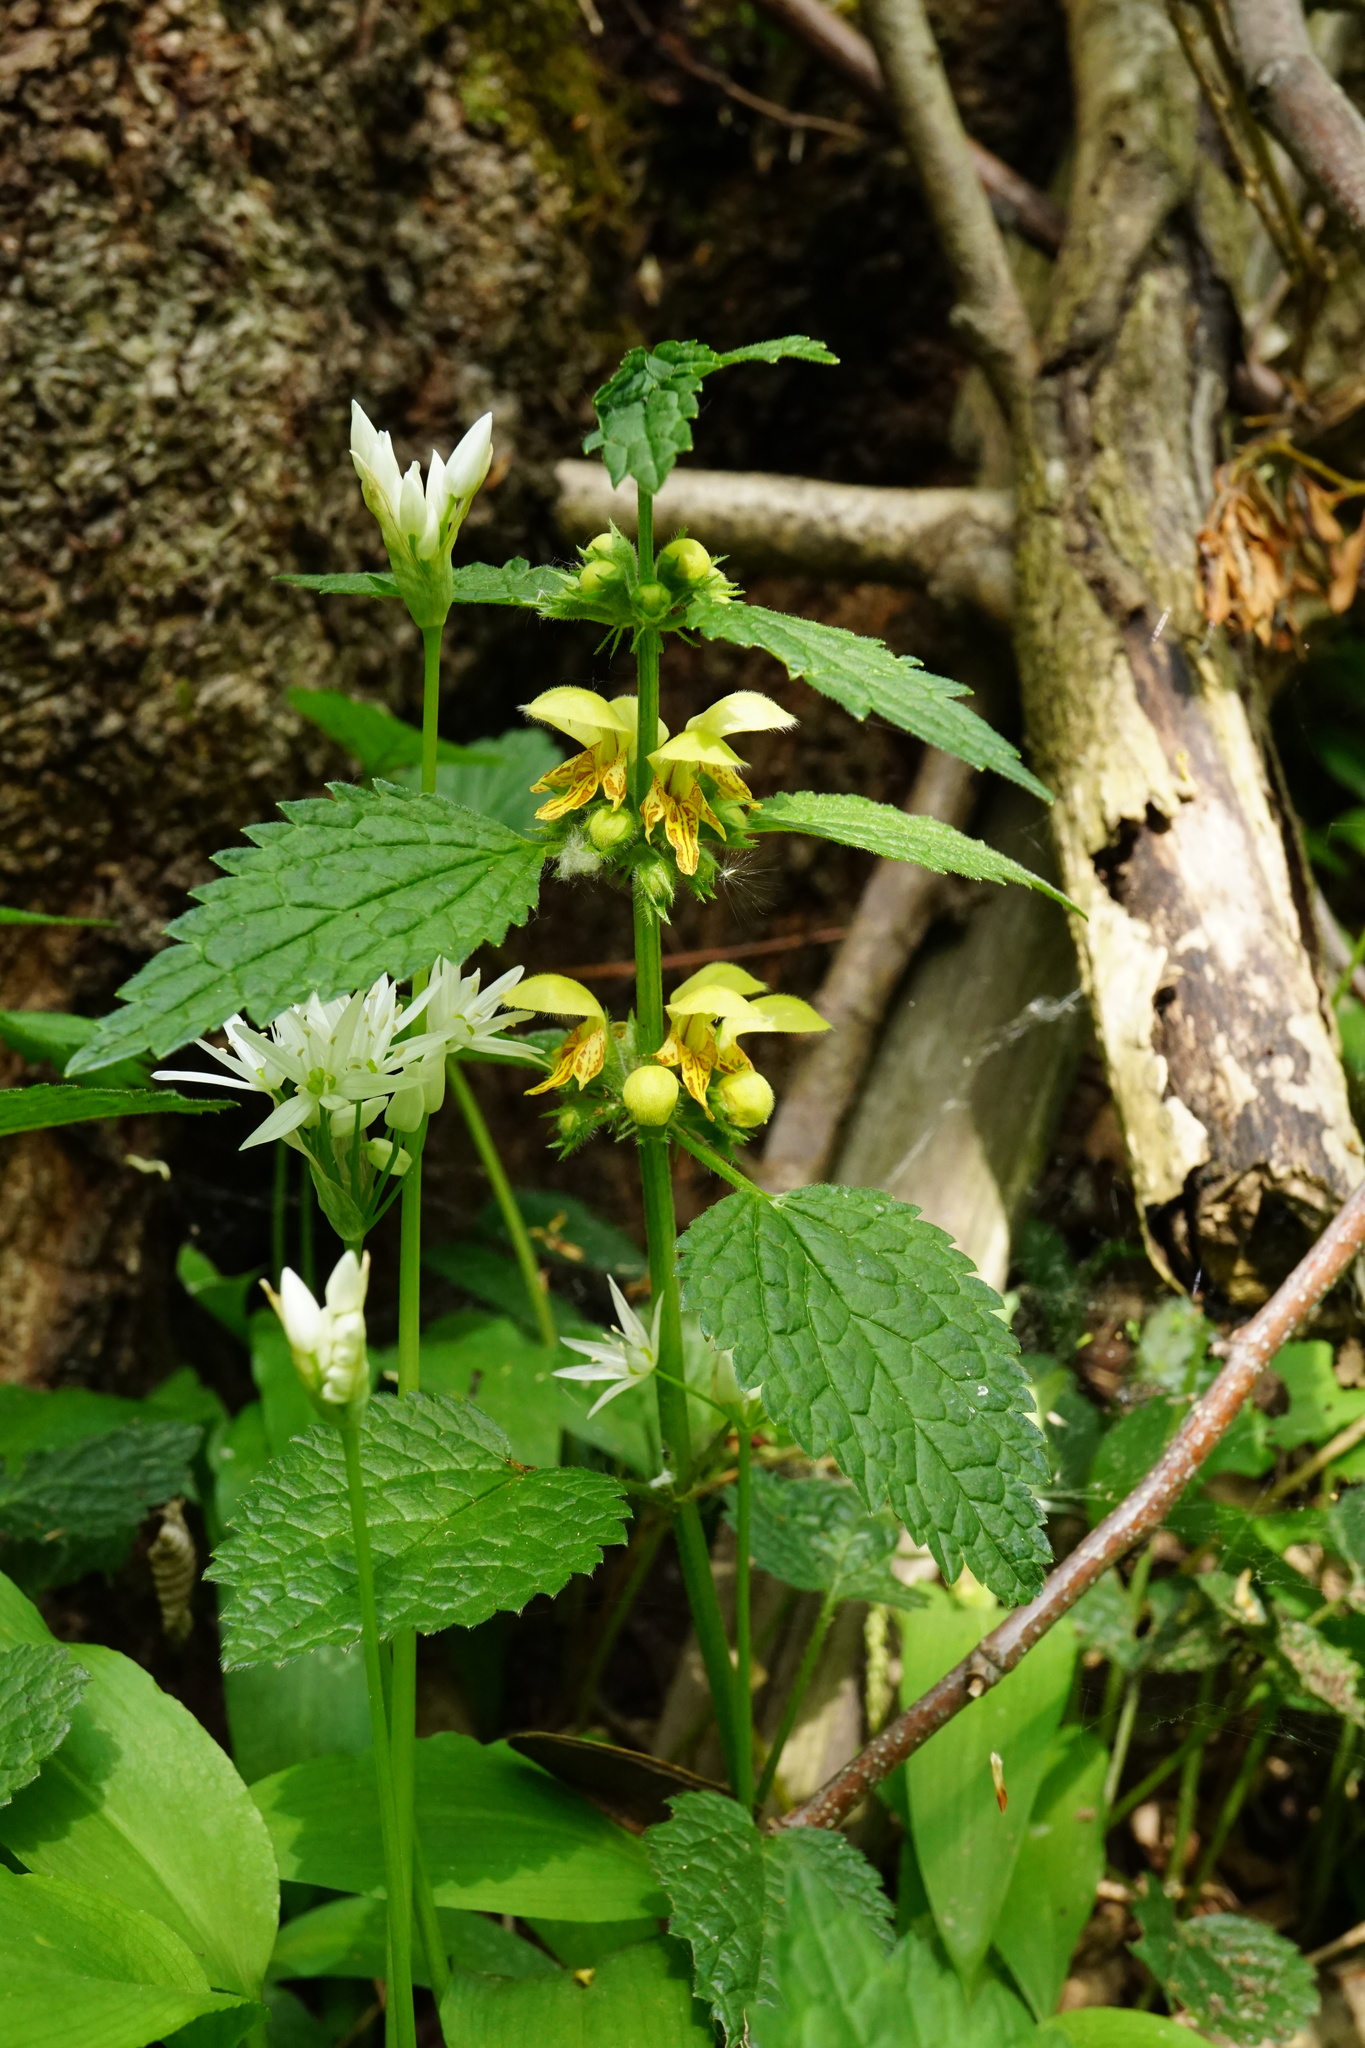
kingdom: Plantae
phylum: Tracheophyta
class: Magnoliopsida
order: Lamiales
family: Lamiaceae
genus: Lamium
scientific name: Lamium galeobdolon
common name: Yellow archangel
